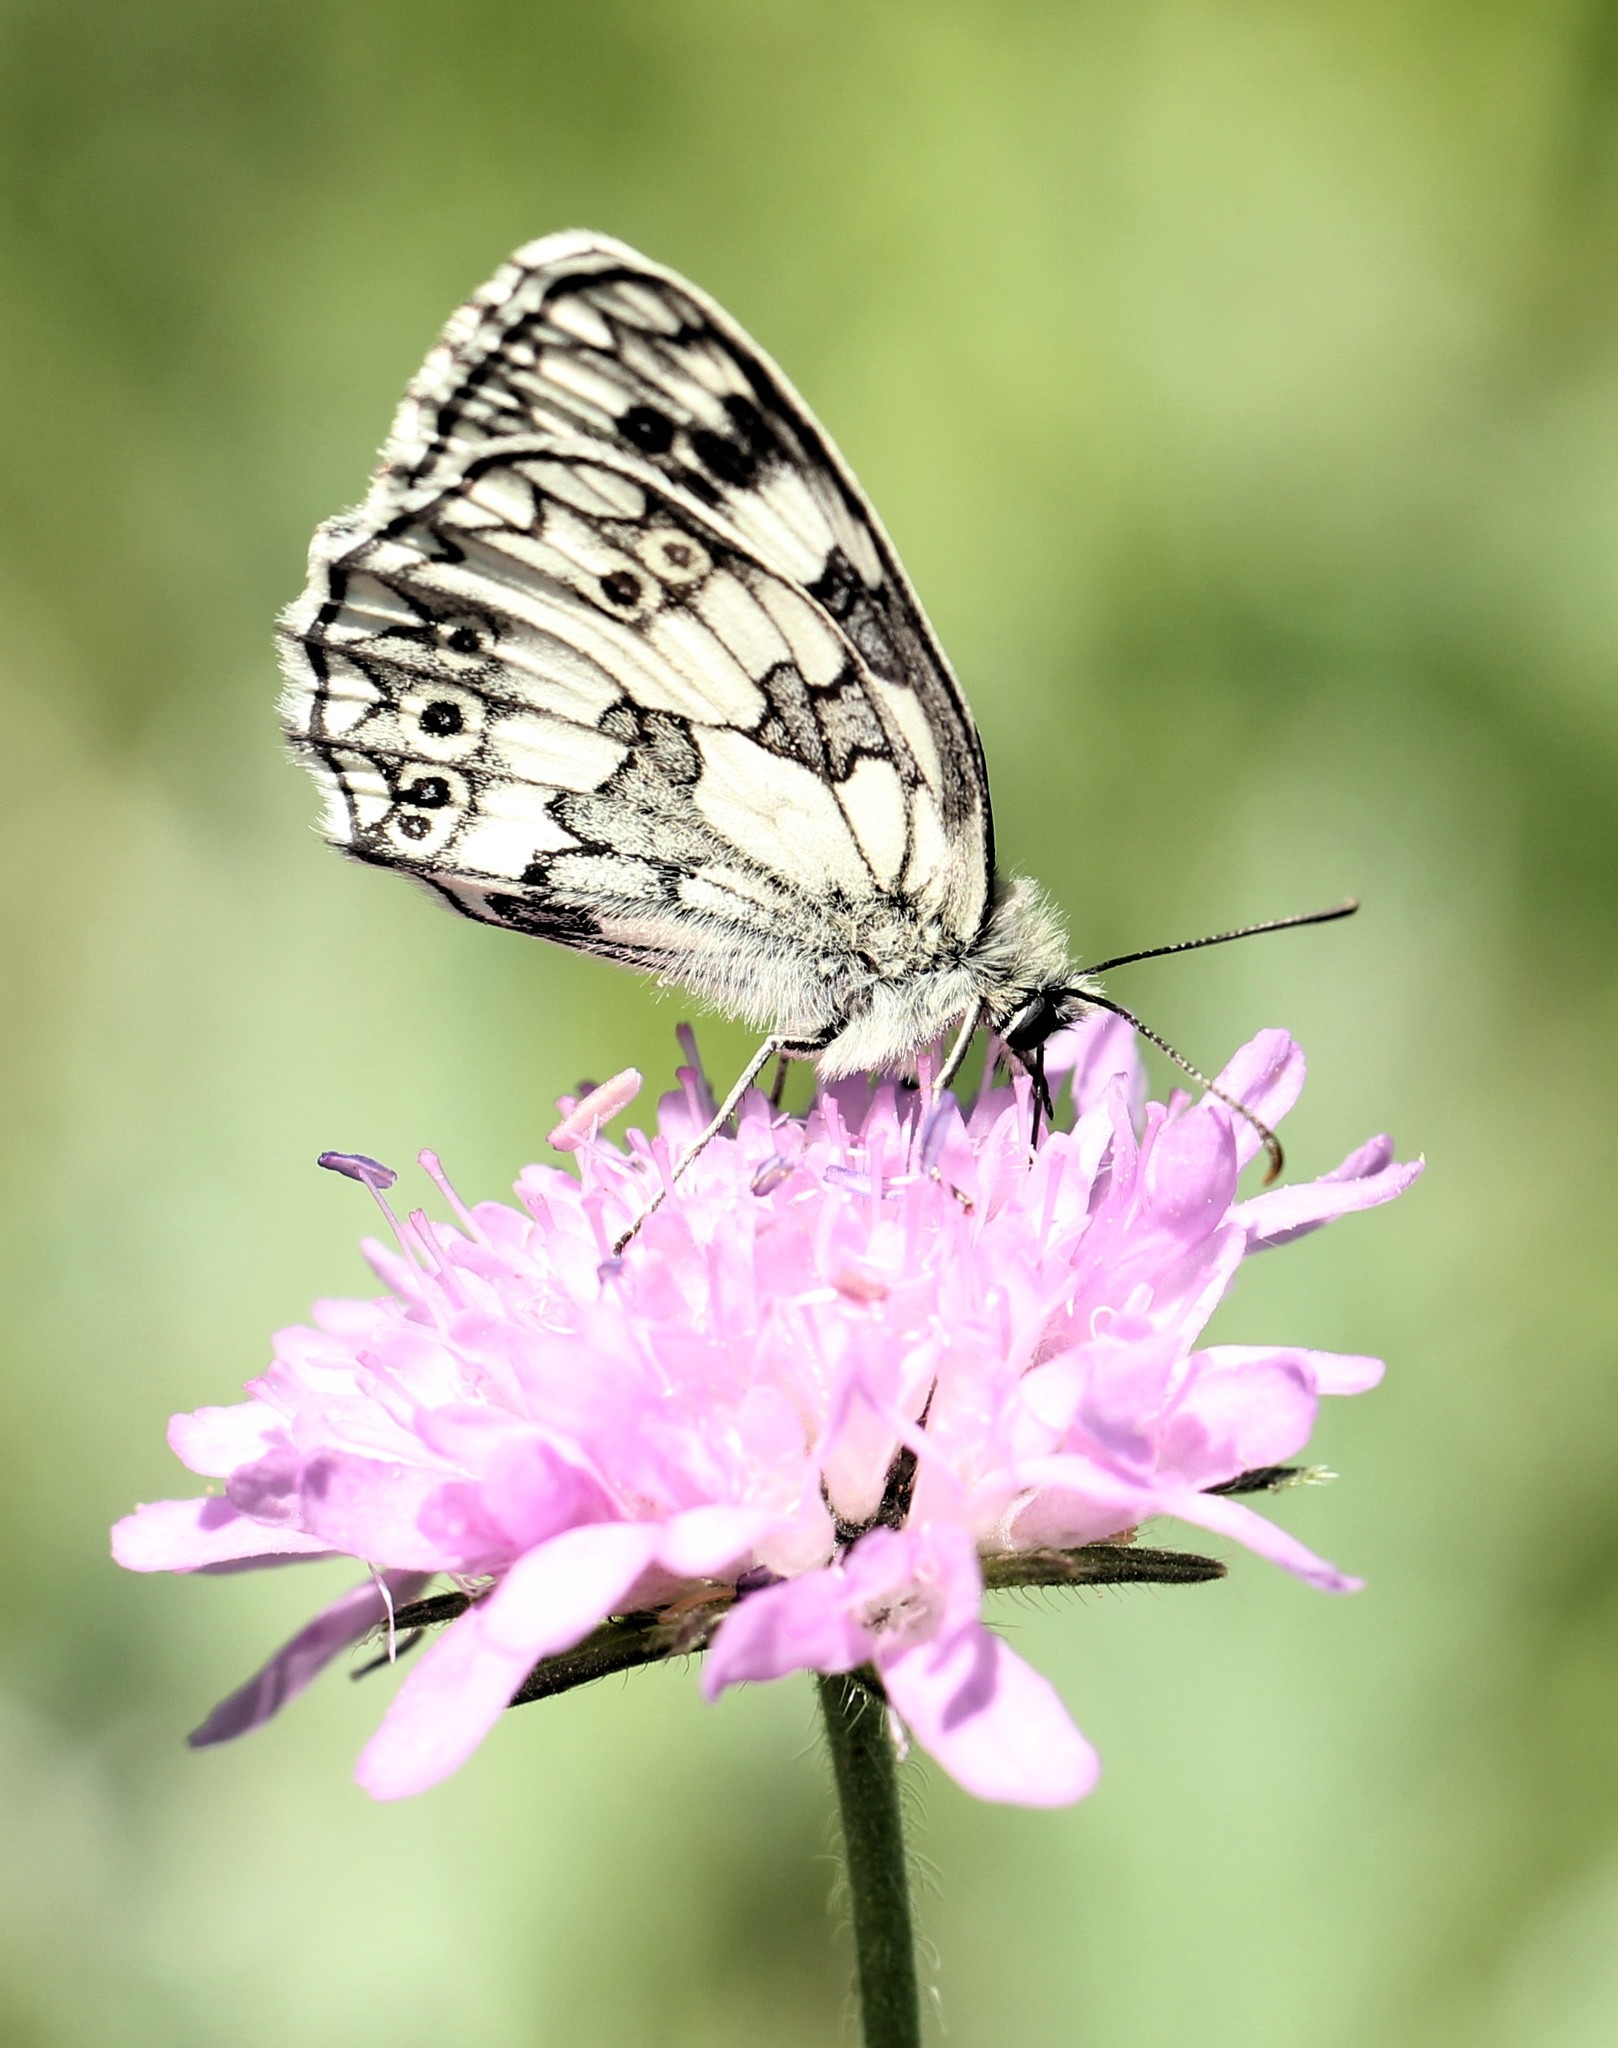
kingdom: Animalia
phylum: Arthropoda
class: Insecta
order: Lepidoptera
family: Nymphalidae
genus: Melanargia
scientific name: Melanargia galathea
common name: Marbled white
